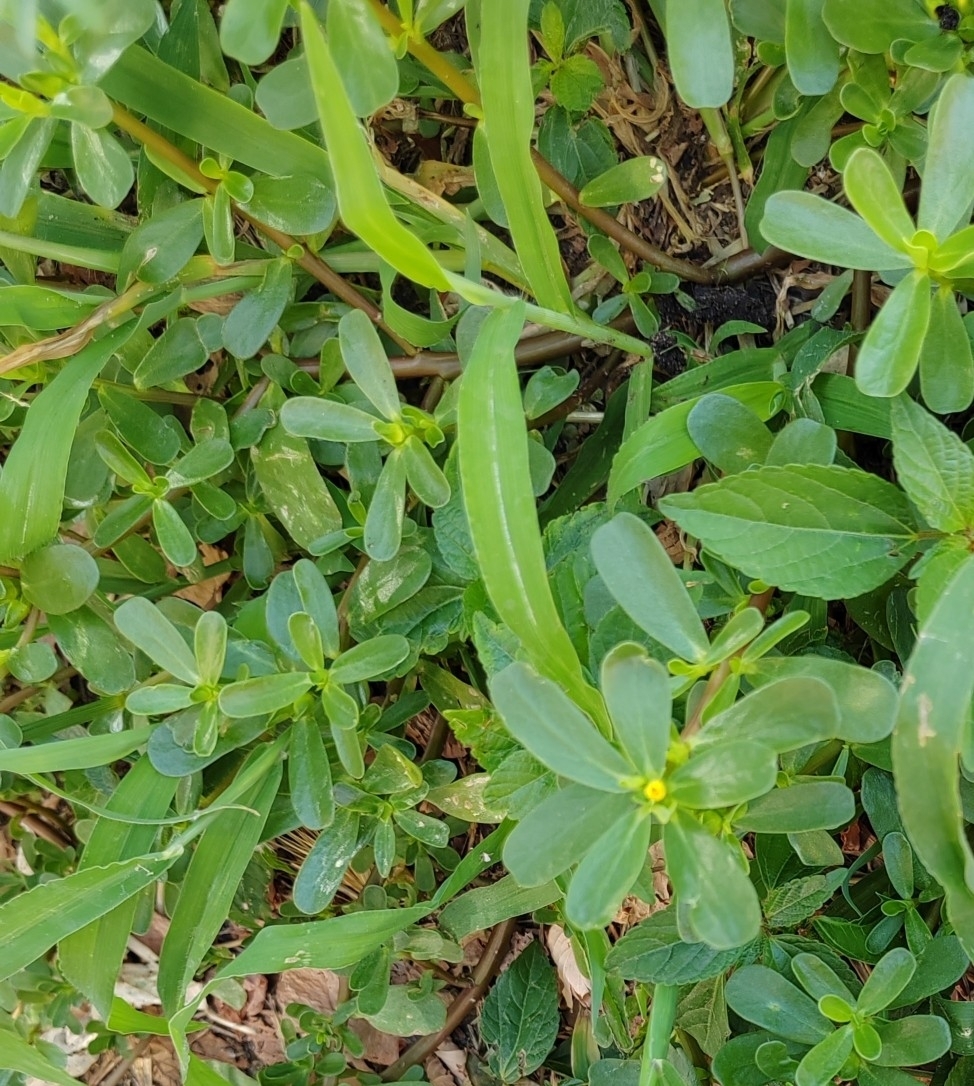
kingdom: Plantae
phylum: Tracheophyta
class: Magnoliopsida
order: Caryophyllales
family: Portulacaceae
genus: Portulaca
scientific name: Portulaca oleracea
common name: Common purslane
